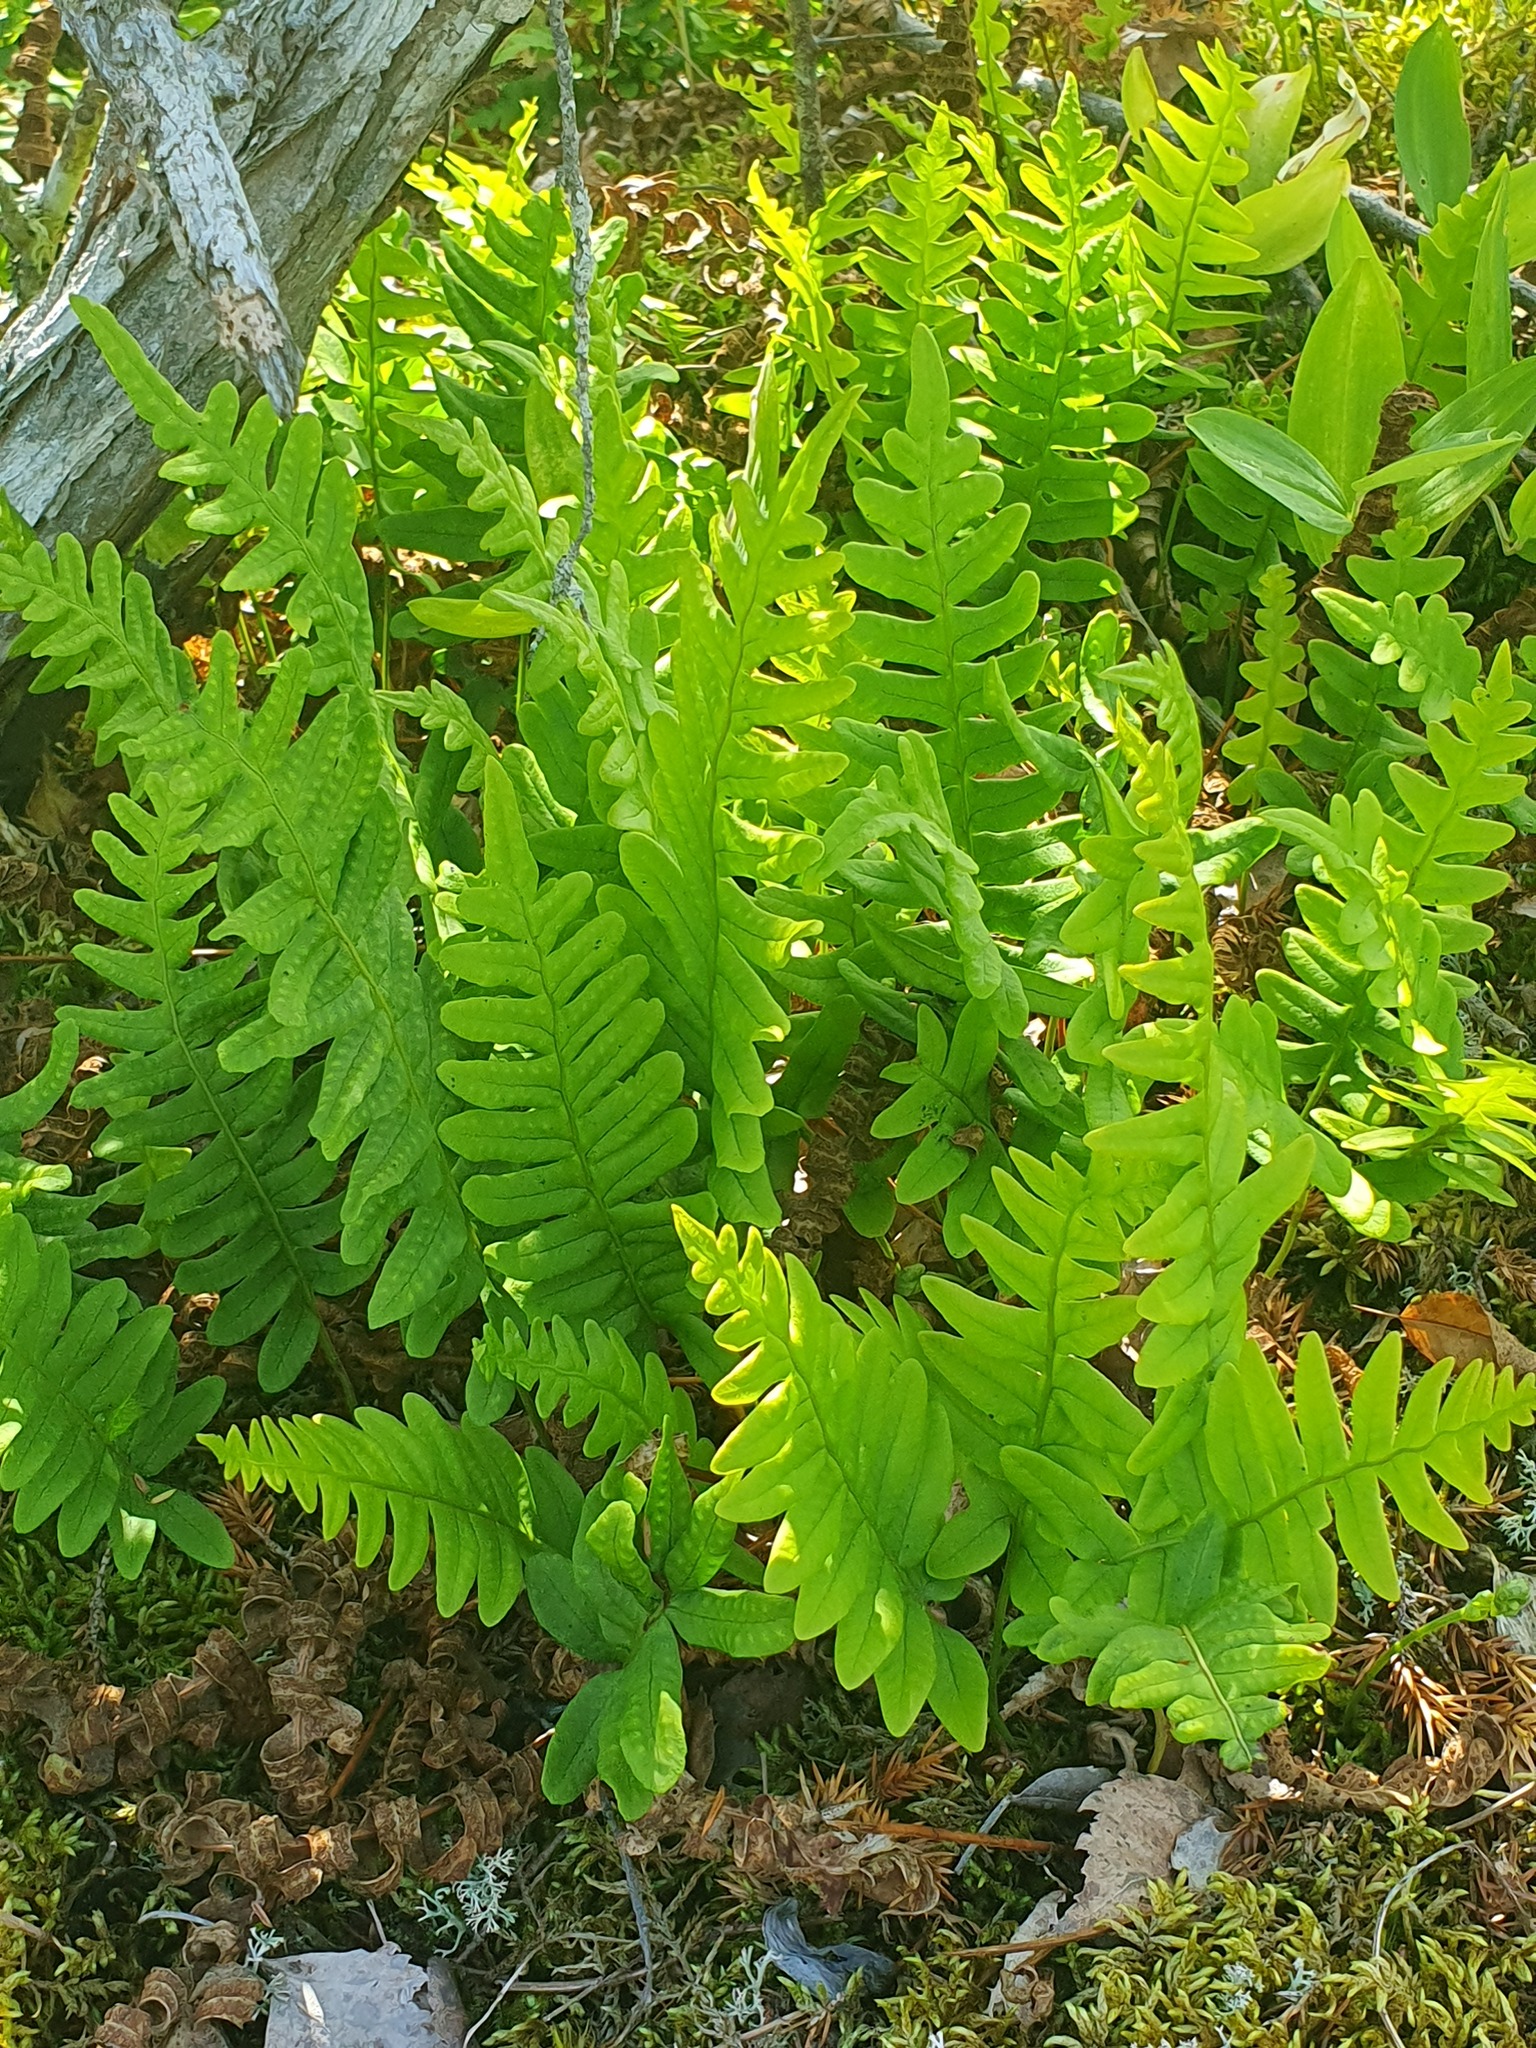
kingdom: Plantae
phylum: Tracheophyta
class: Polypodiopsida
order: Polypodiales
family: Polypodiaceae
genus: Polypodium
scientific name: Polypodium vulgare
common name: Common polypody
